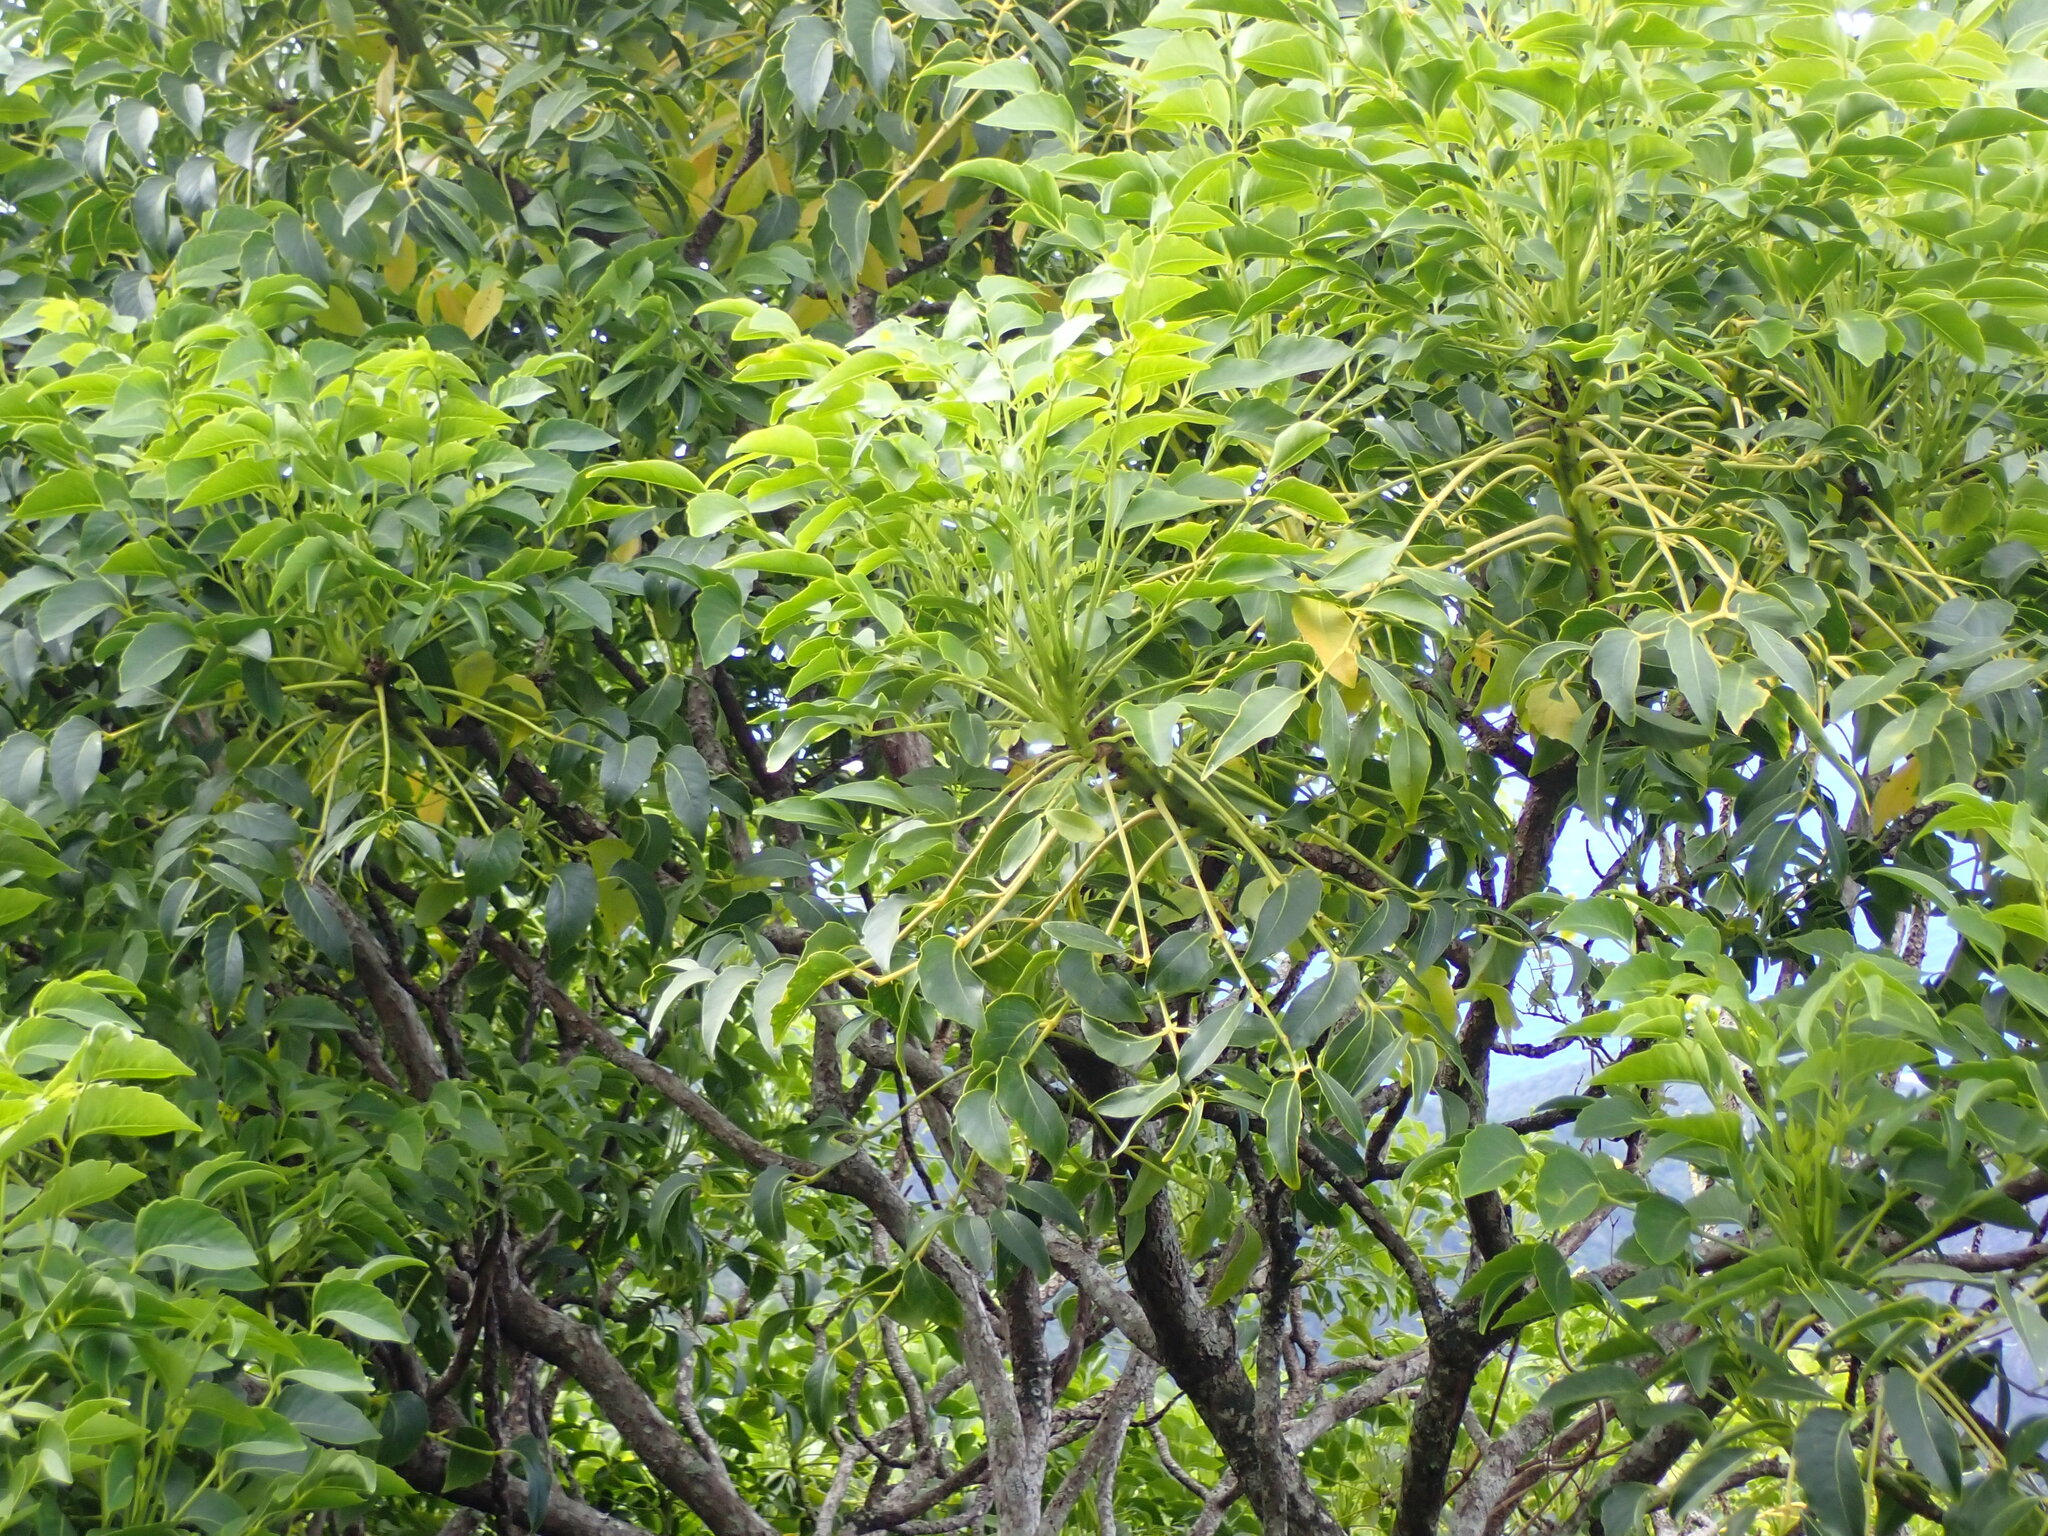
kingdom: Plantae
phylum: Tracheophyta
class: Magnoliopsida
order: Apiales
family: Araliaceae
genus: Polyscias
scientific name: Polyscias cissodendron
